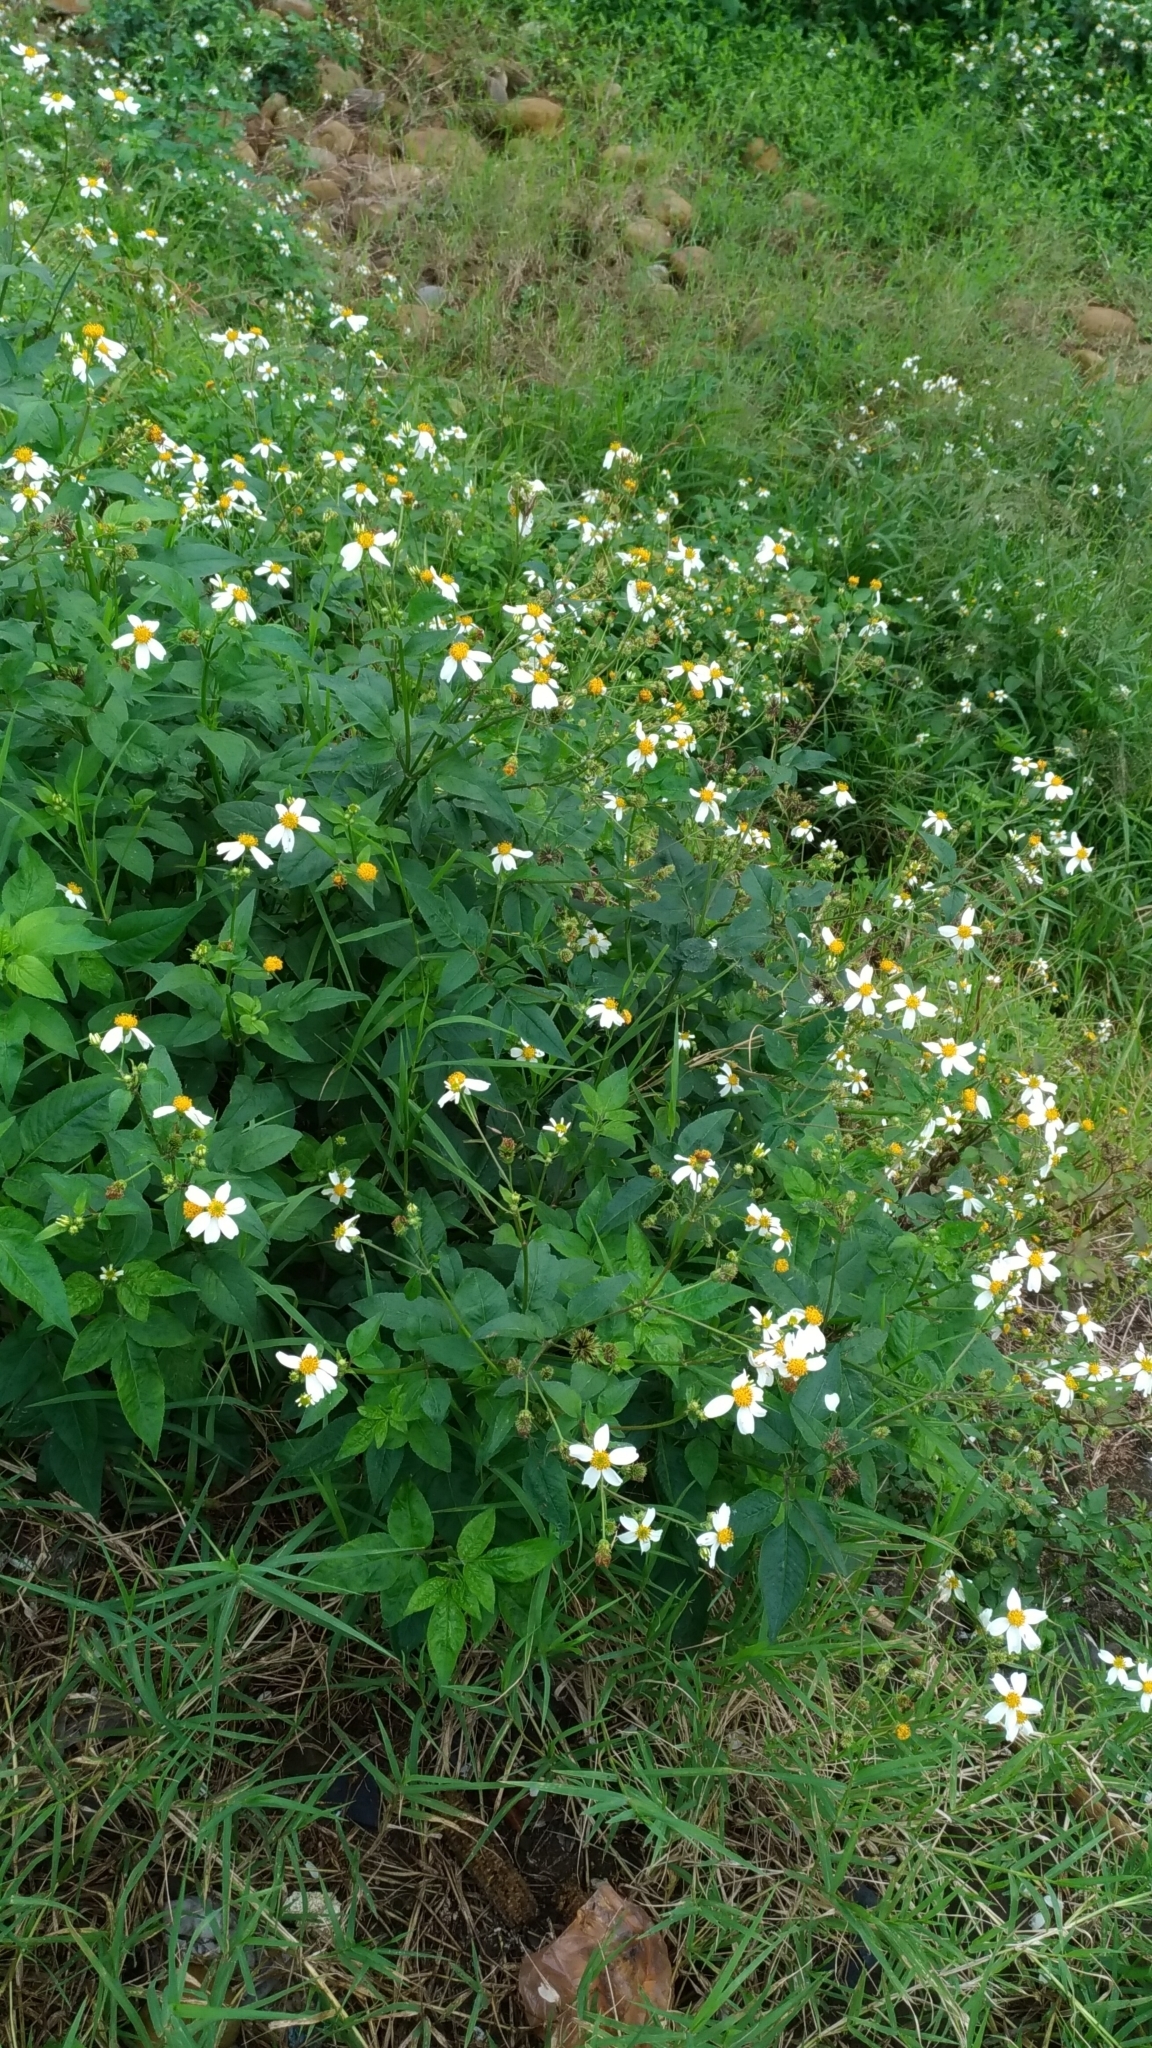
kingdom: Plantae
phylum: Tracheophyta
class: Magnoliopsida
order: Asterales
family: Asteraceae
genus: Bidens
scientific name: Bidens alba
